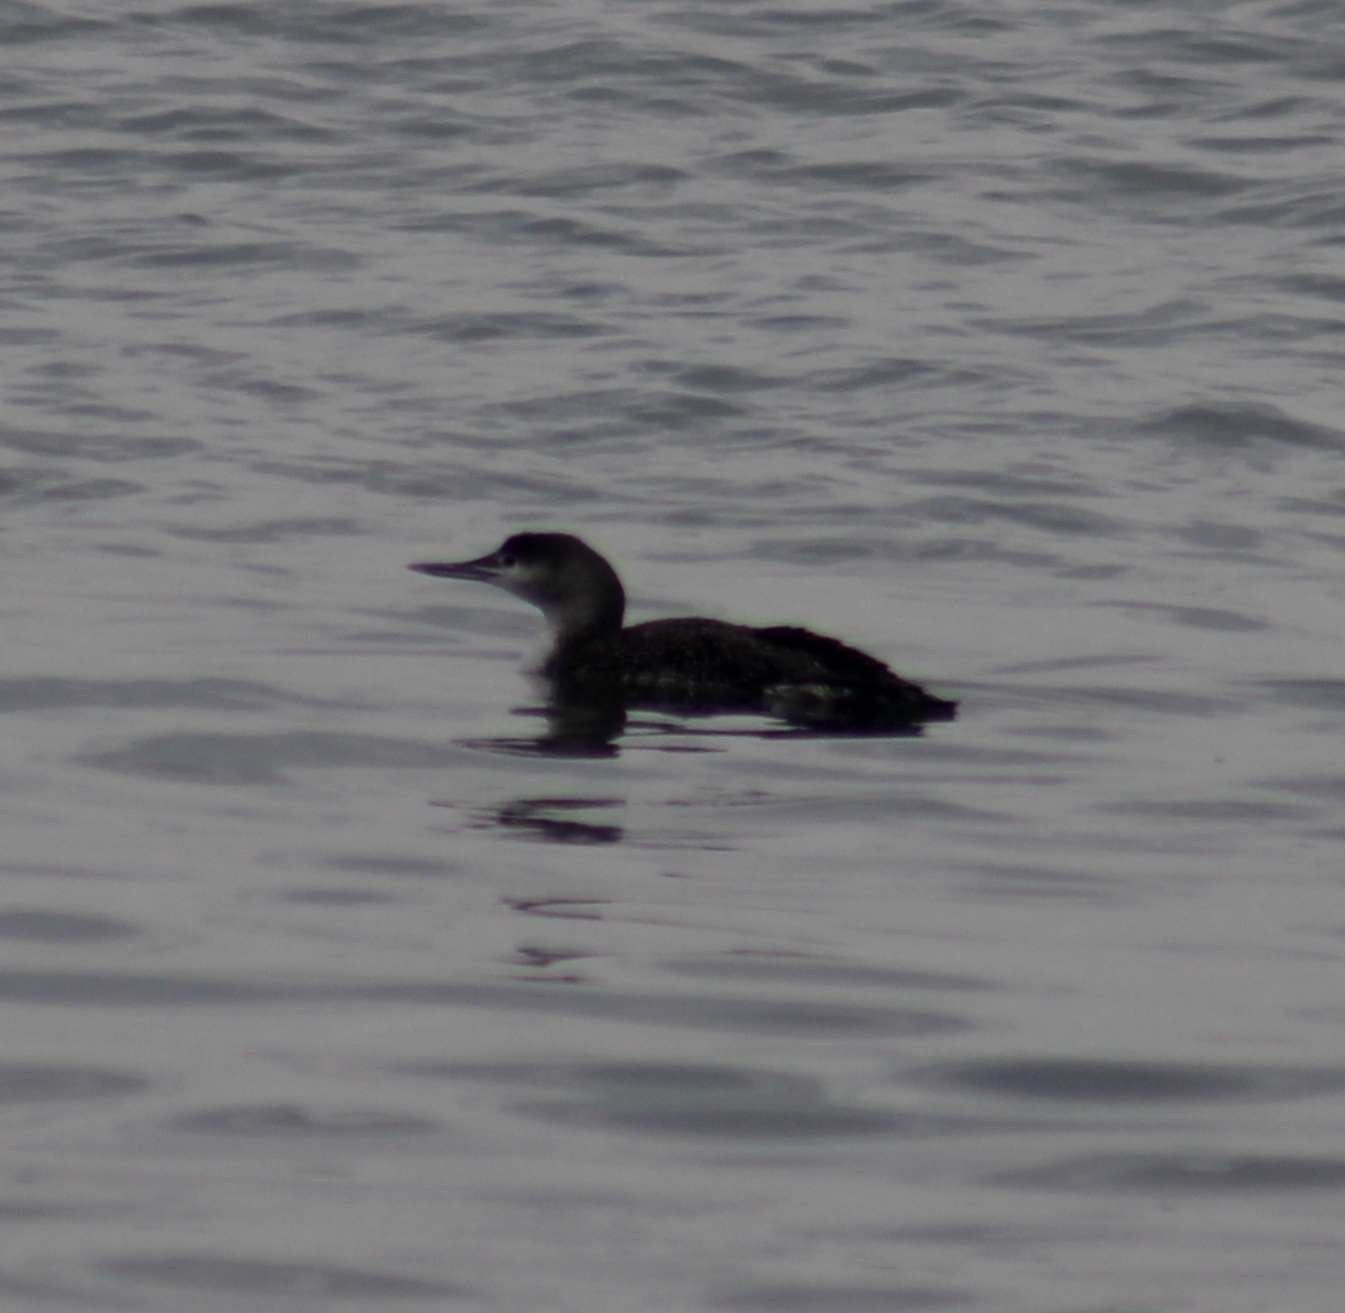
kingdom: Animalia
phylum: Chordata
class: Aves
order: Gaviiformes
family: Gaviidae
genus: Gavia
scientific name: Gavia stellata
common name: Red-throated loon
